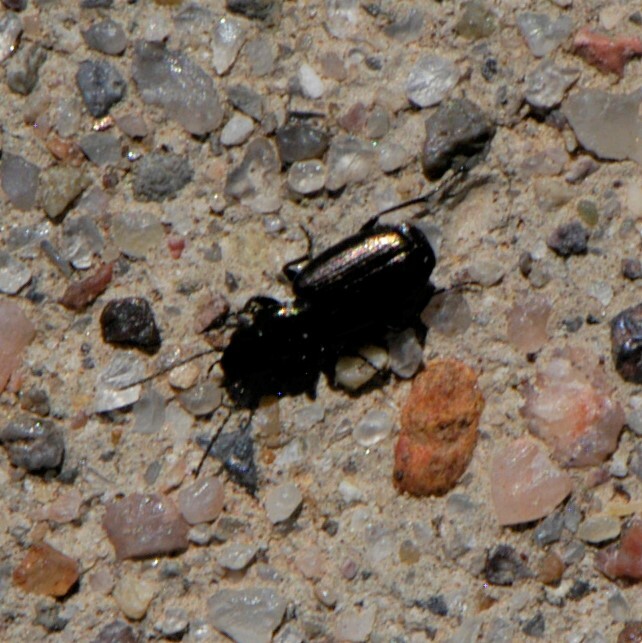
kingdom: Animalia
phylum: Arthropoda
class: Insecta
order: Coleoptera
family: Carabidae
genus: Apristus
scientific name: Apristus
